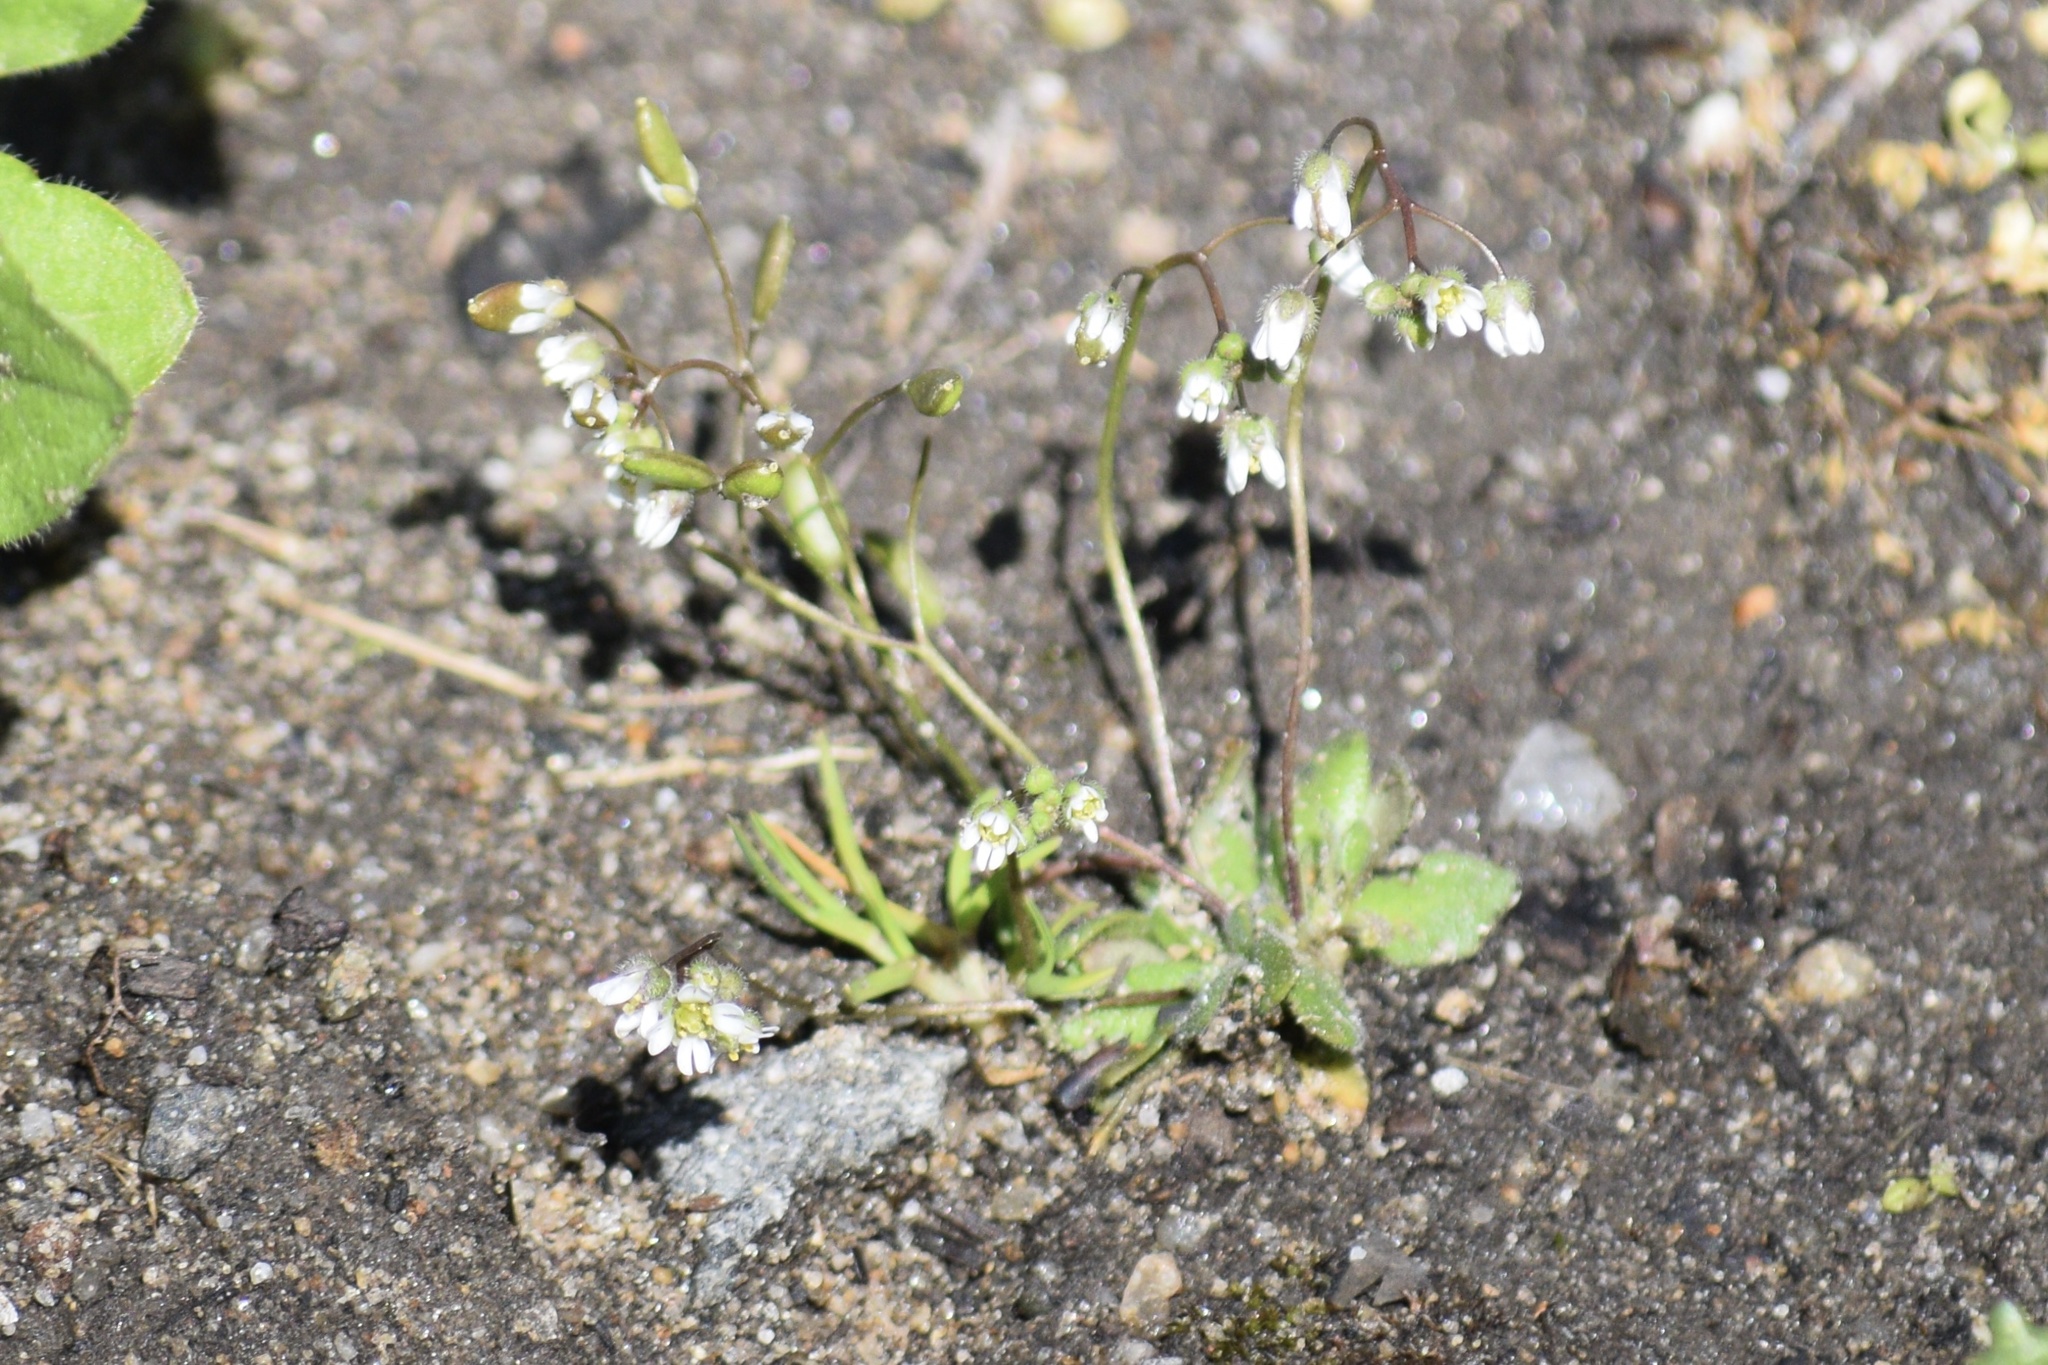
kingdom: Plantae
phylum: Tracheophyta
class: Magnoliopsida
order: Brassicales
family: Brassicaceae
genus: Draba
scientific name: Draba verna
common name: Spring draba
